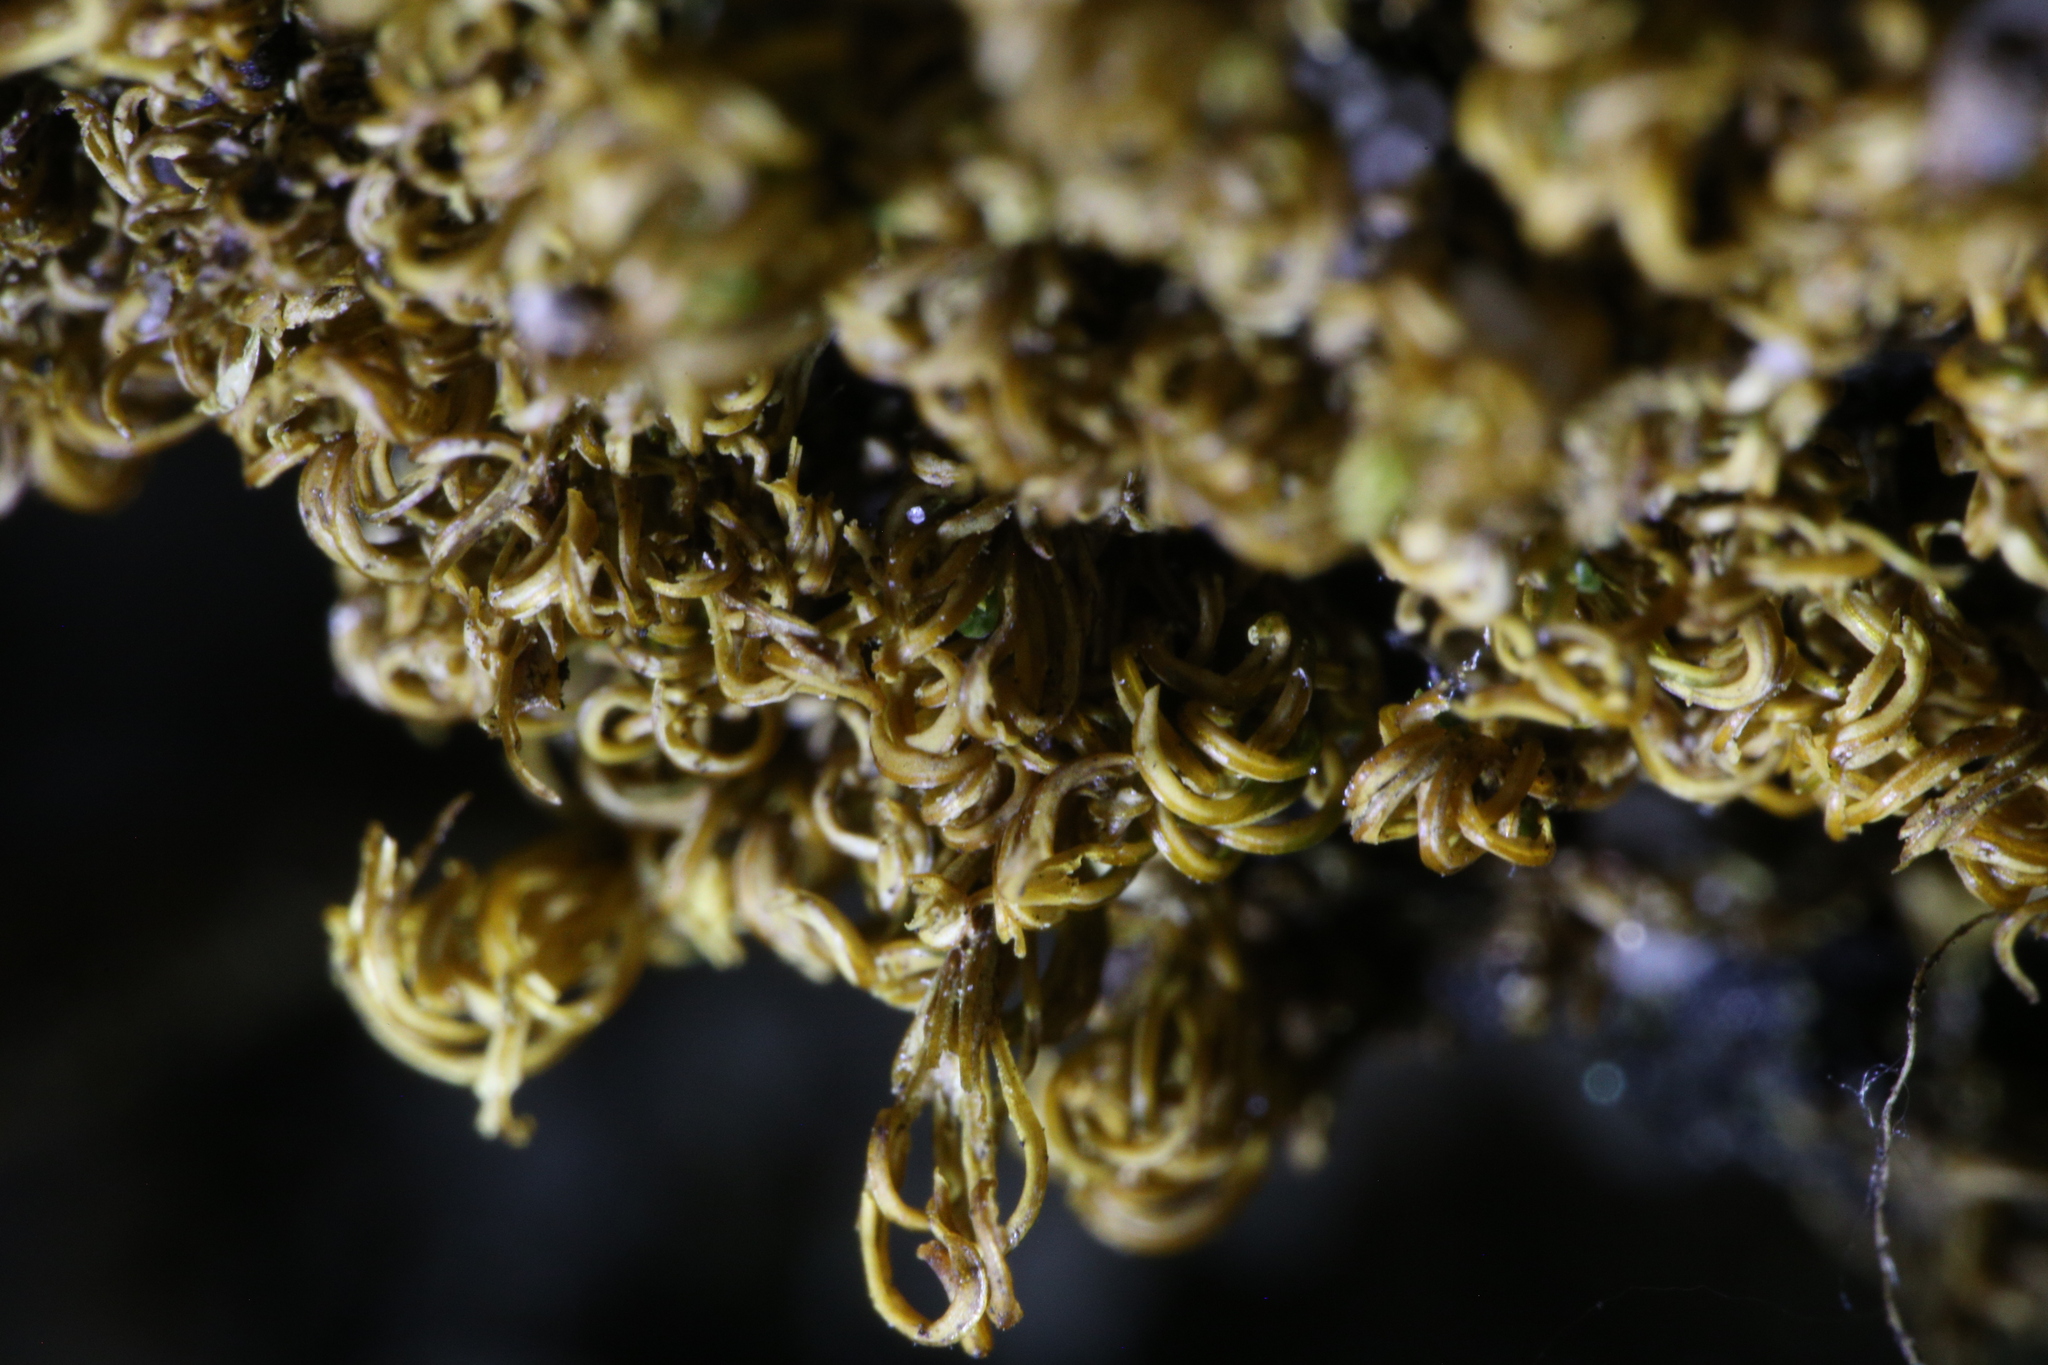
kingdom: Plantae
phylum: Bryophyta
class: Bryopsida
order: Pottiales
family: Pottiaceae
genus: Calymperastrum
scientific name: Calymperastrum latifolium
